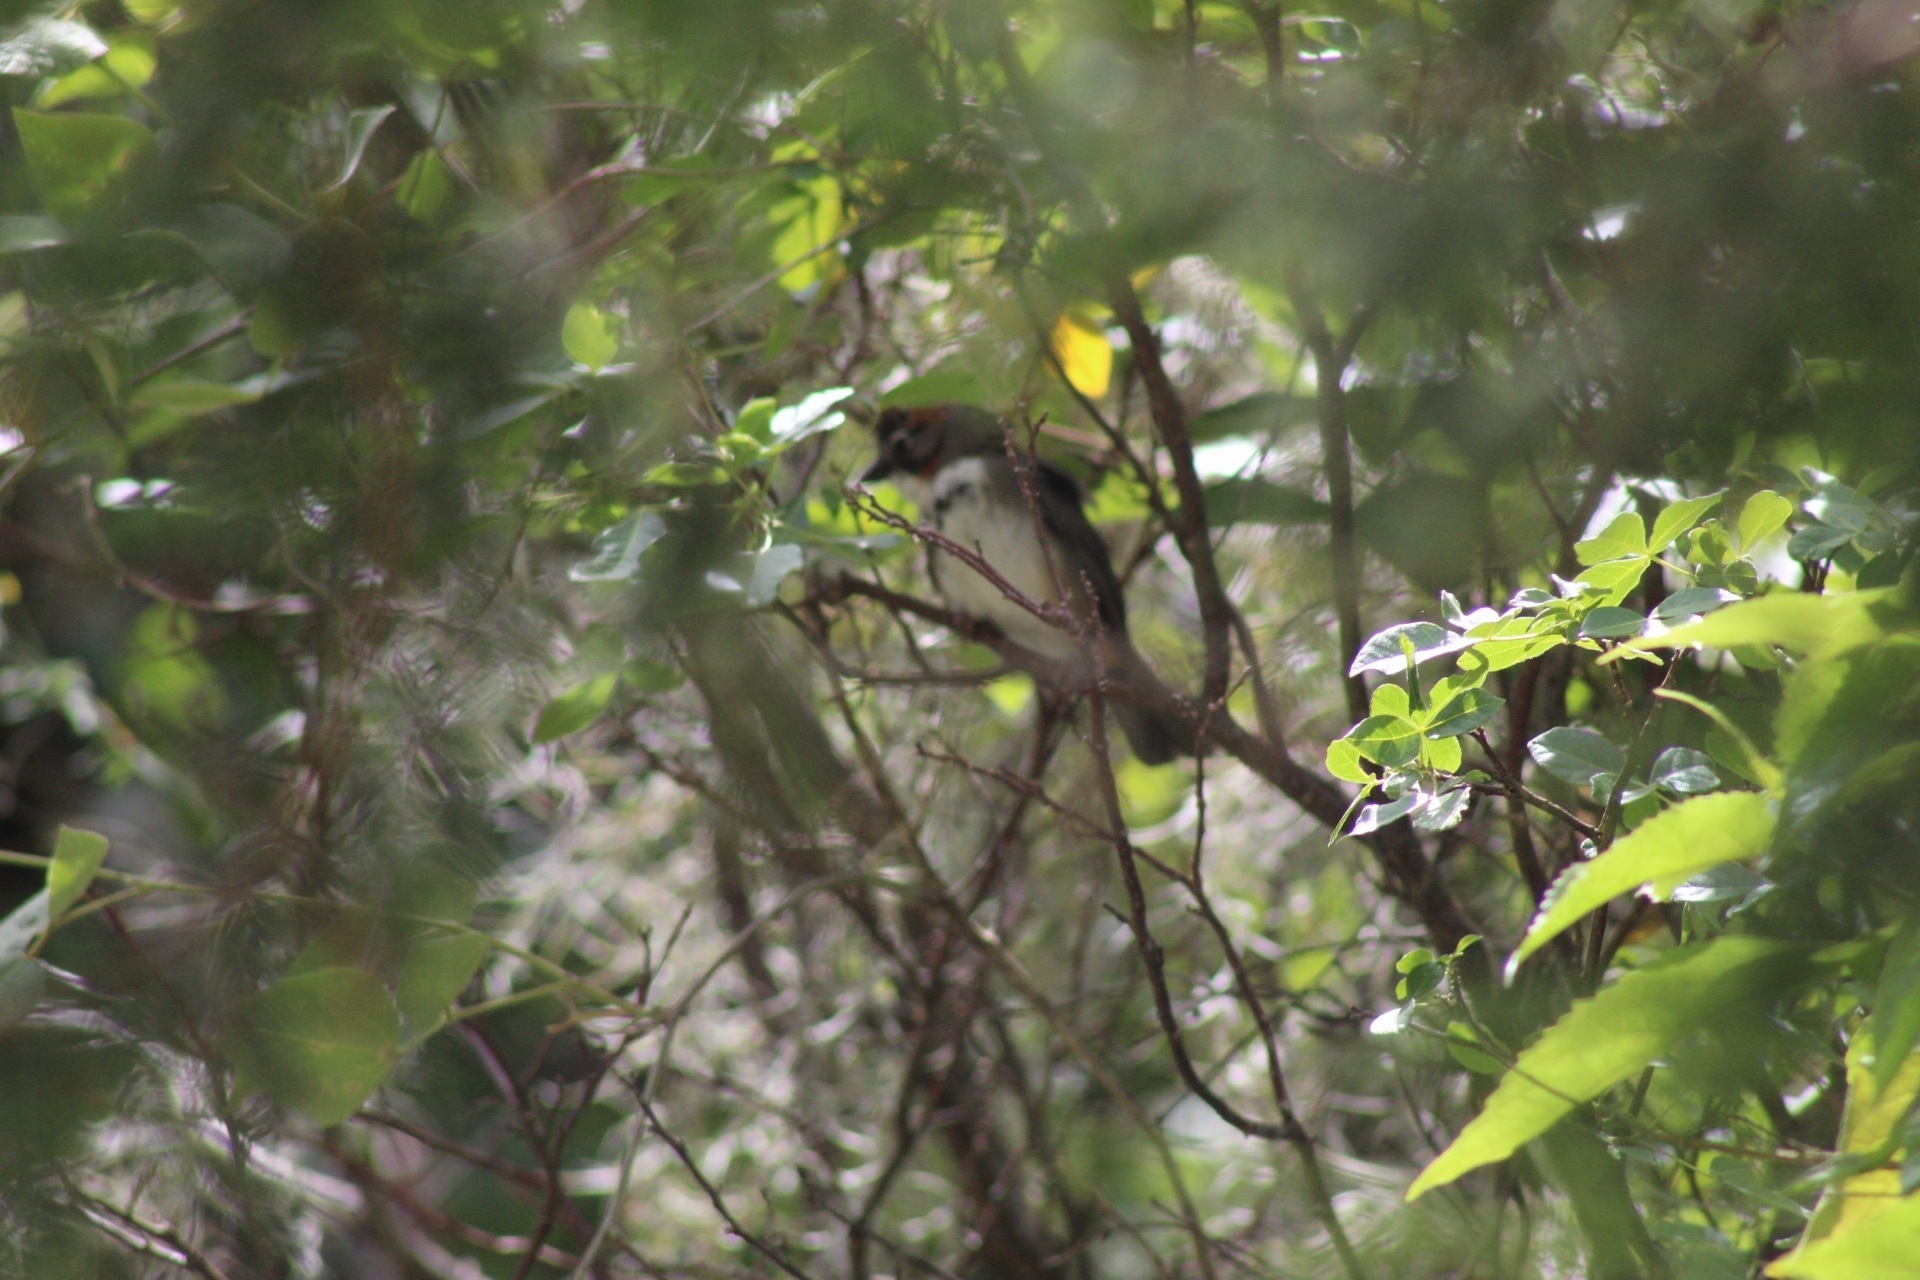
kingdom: Animalia
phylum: Chordata
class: Aves
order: Passeriformes
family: Passerellidae
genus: Melozone
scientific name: Melozone kieneri
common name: Rusty-crowned ground-sparrow
